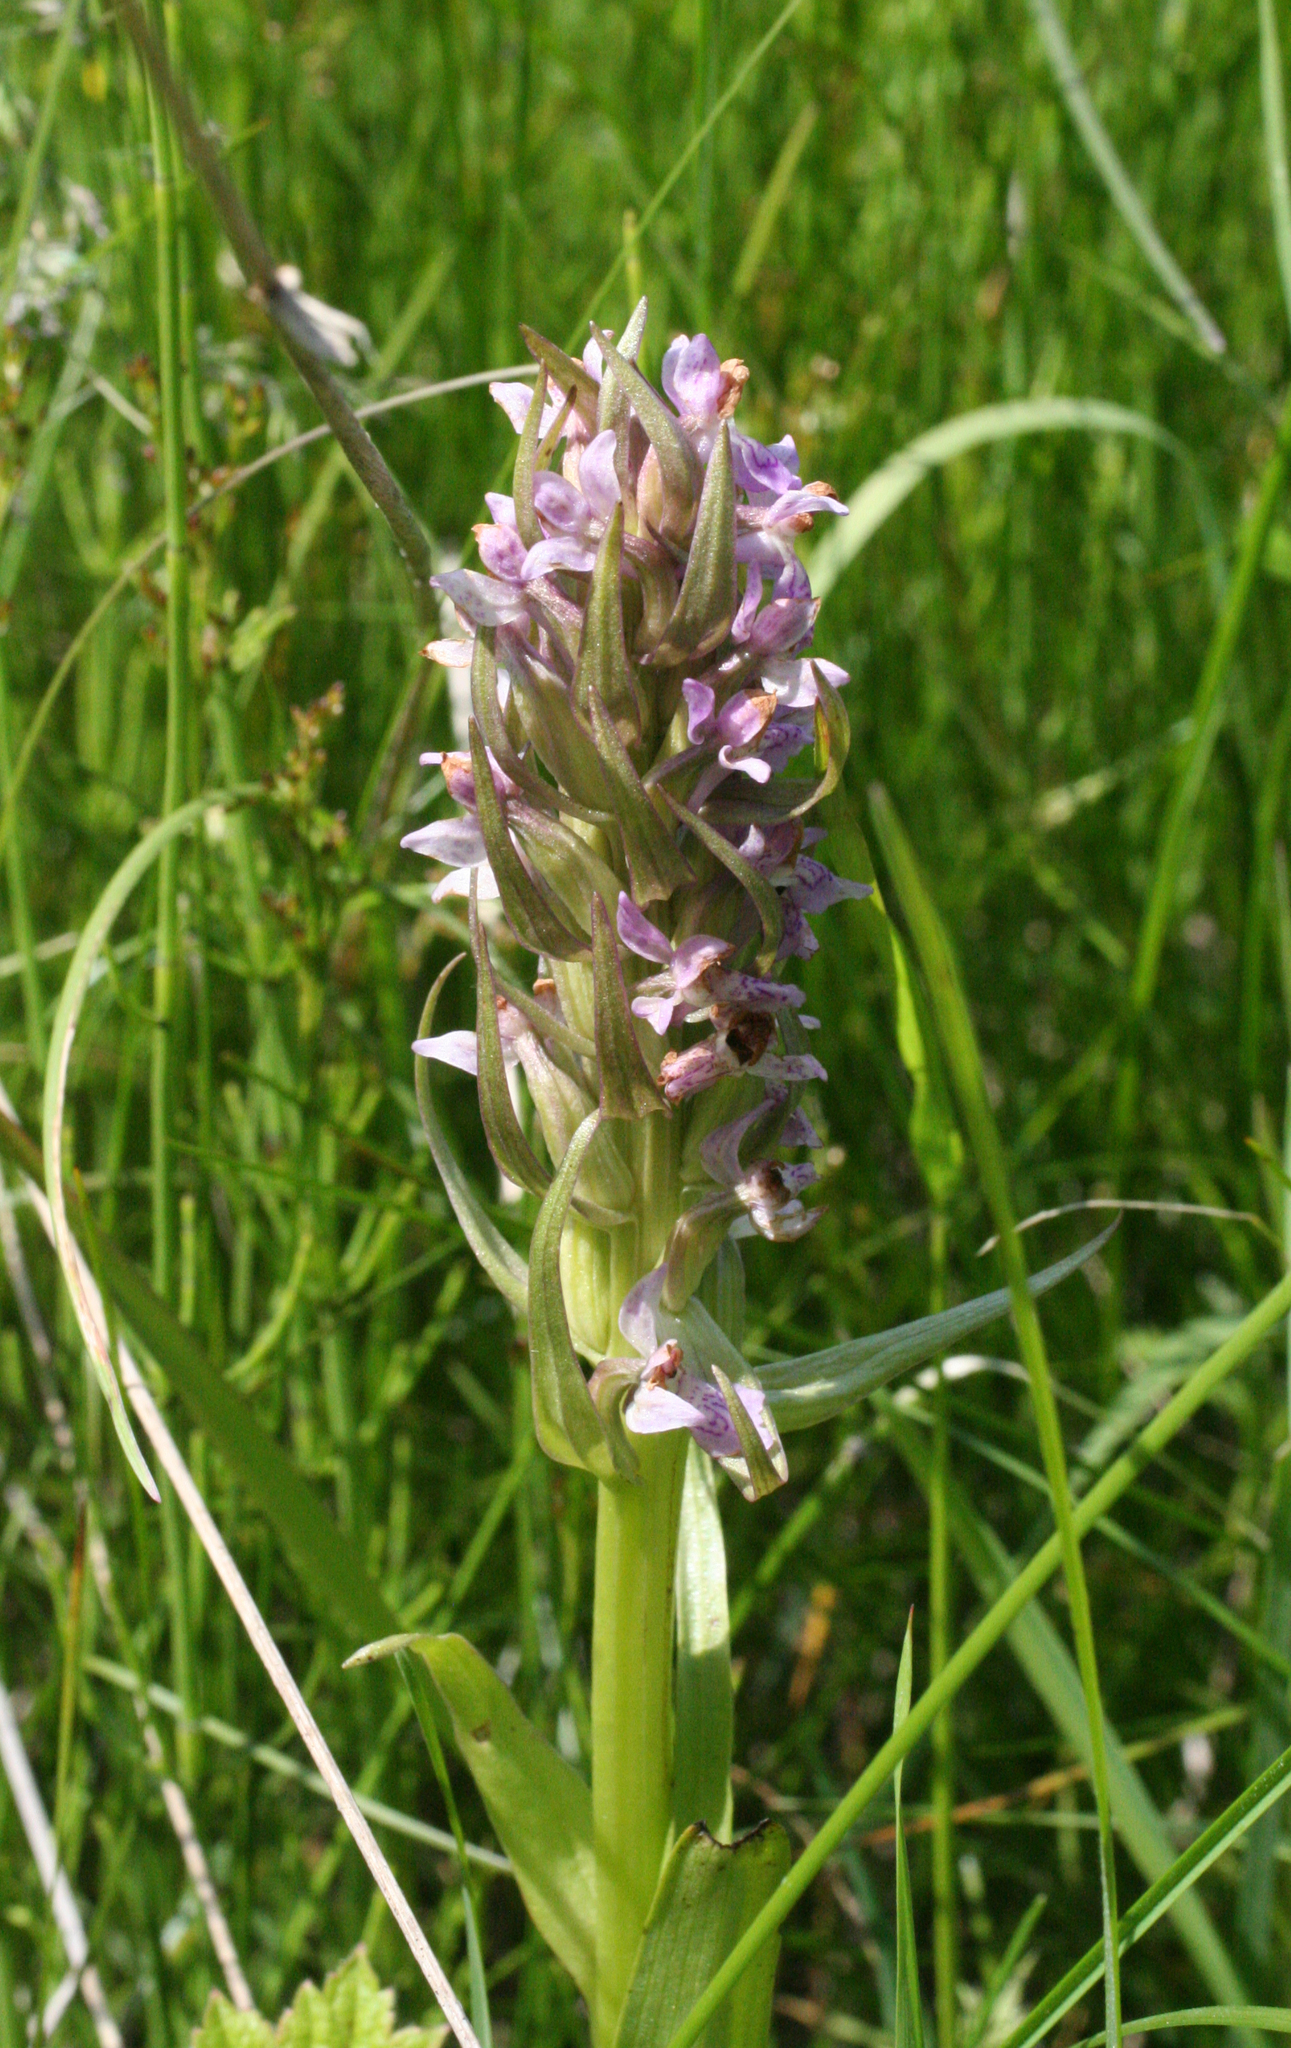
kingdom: Plantae
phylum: Tracheophyta
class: Liliopsida
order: Asparagales
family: Orchidaceae
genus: Dactylorhiza
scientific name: Dactylorhiza incarnata
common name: Early marsh-orchid
